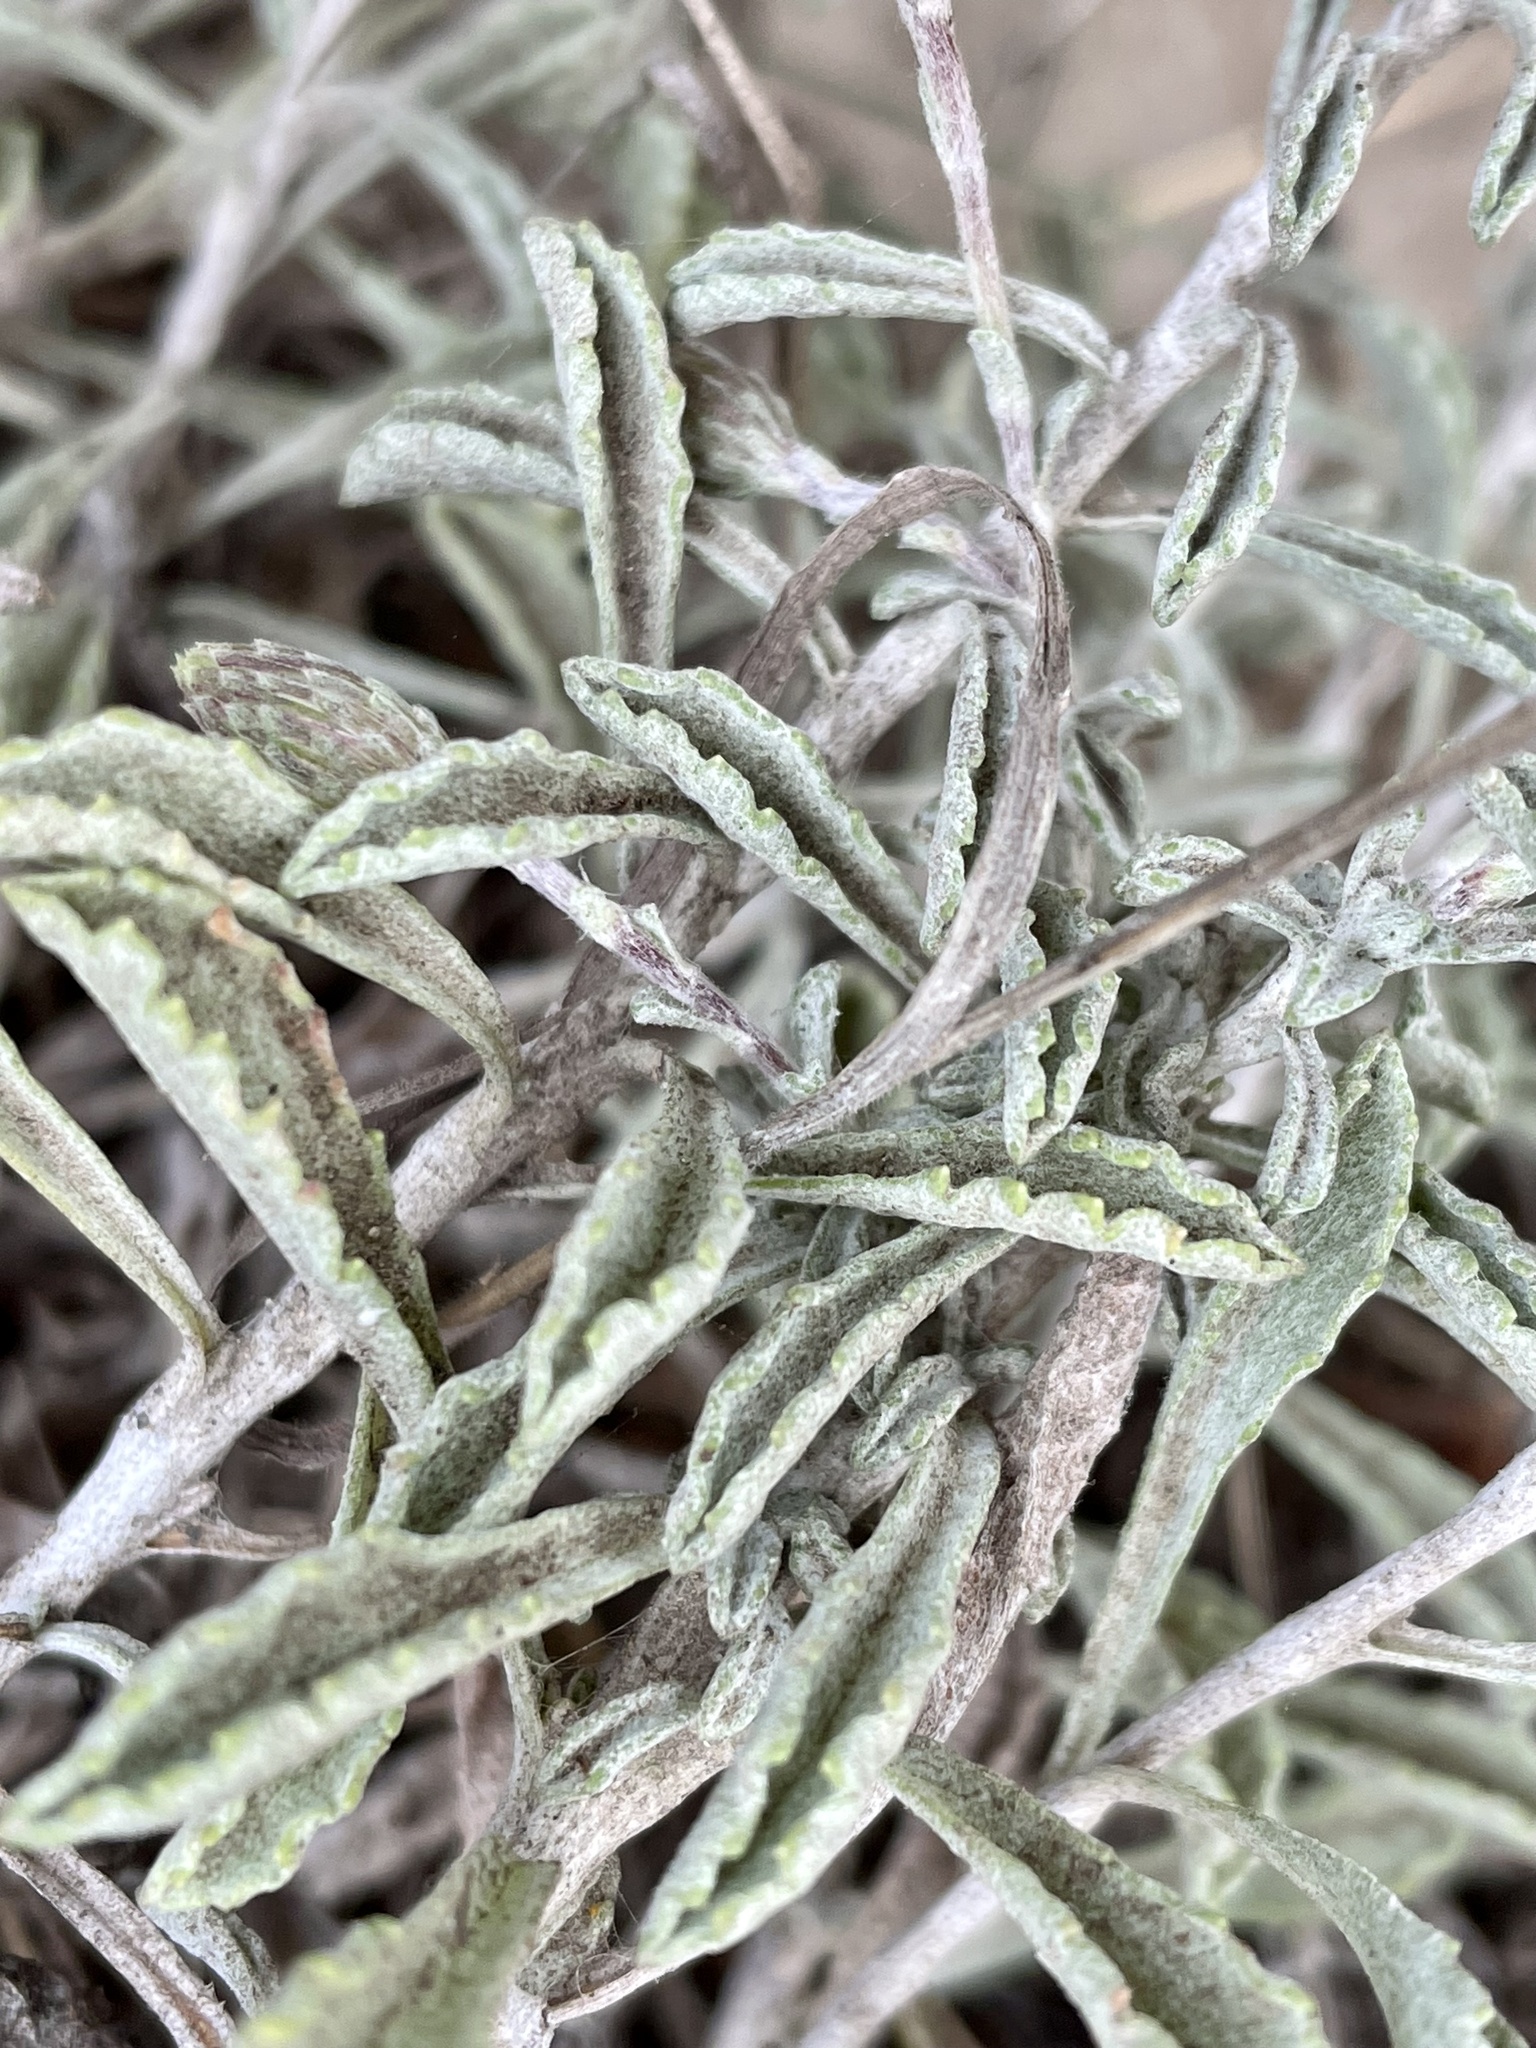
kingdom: Plantae
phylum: Tracheophyta
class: Magnoliopsida
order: Asterales
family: Asteraceae
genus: Corethrogyne
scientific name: Corethrogyne filaginifolia
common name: Sand-aster
